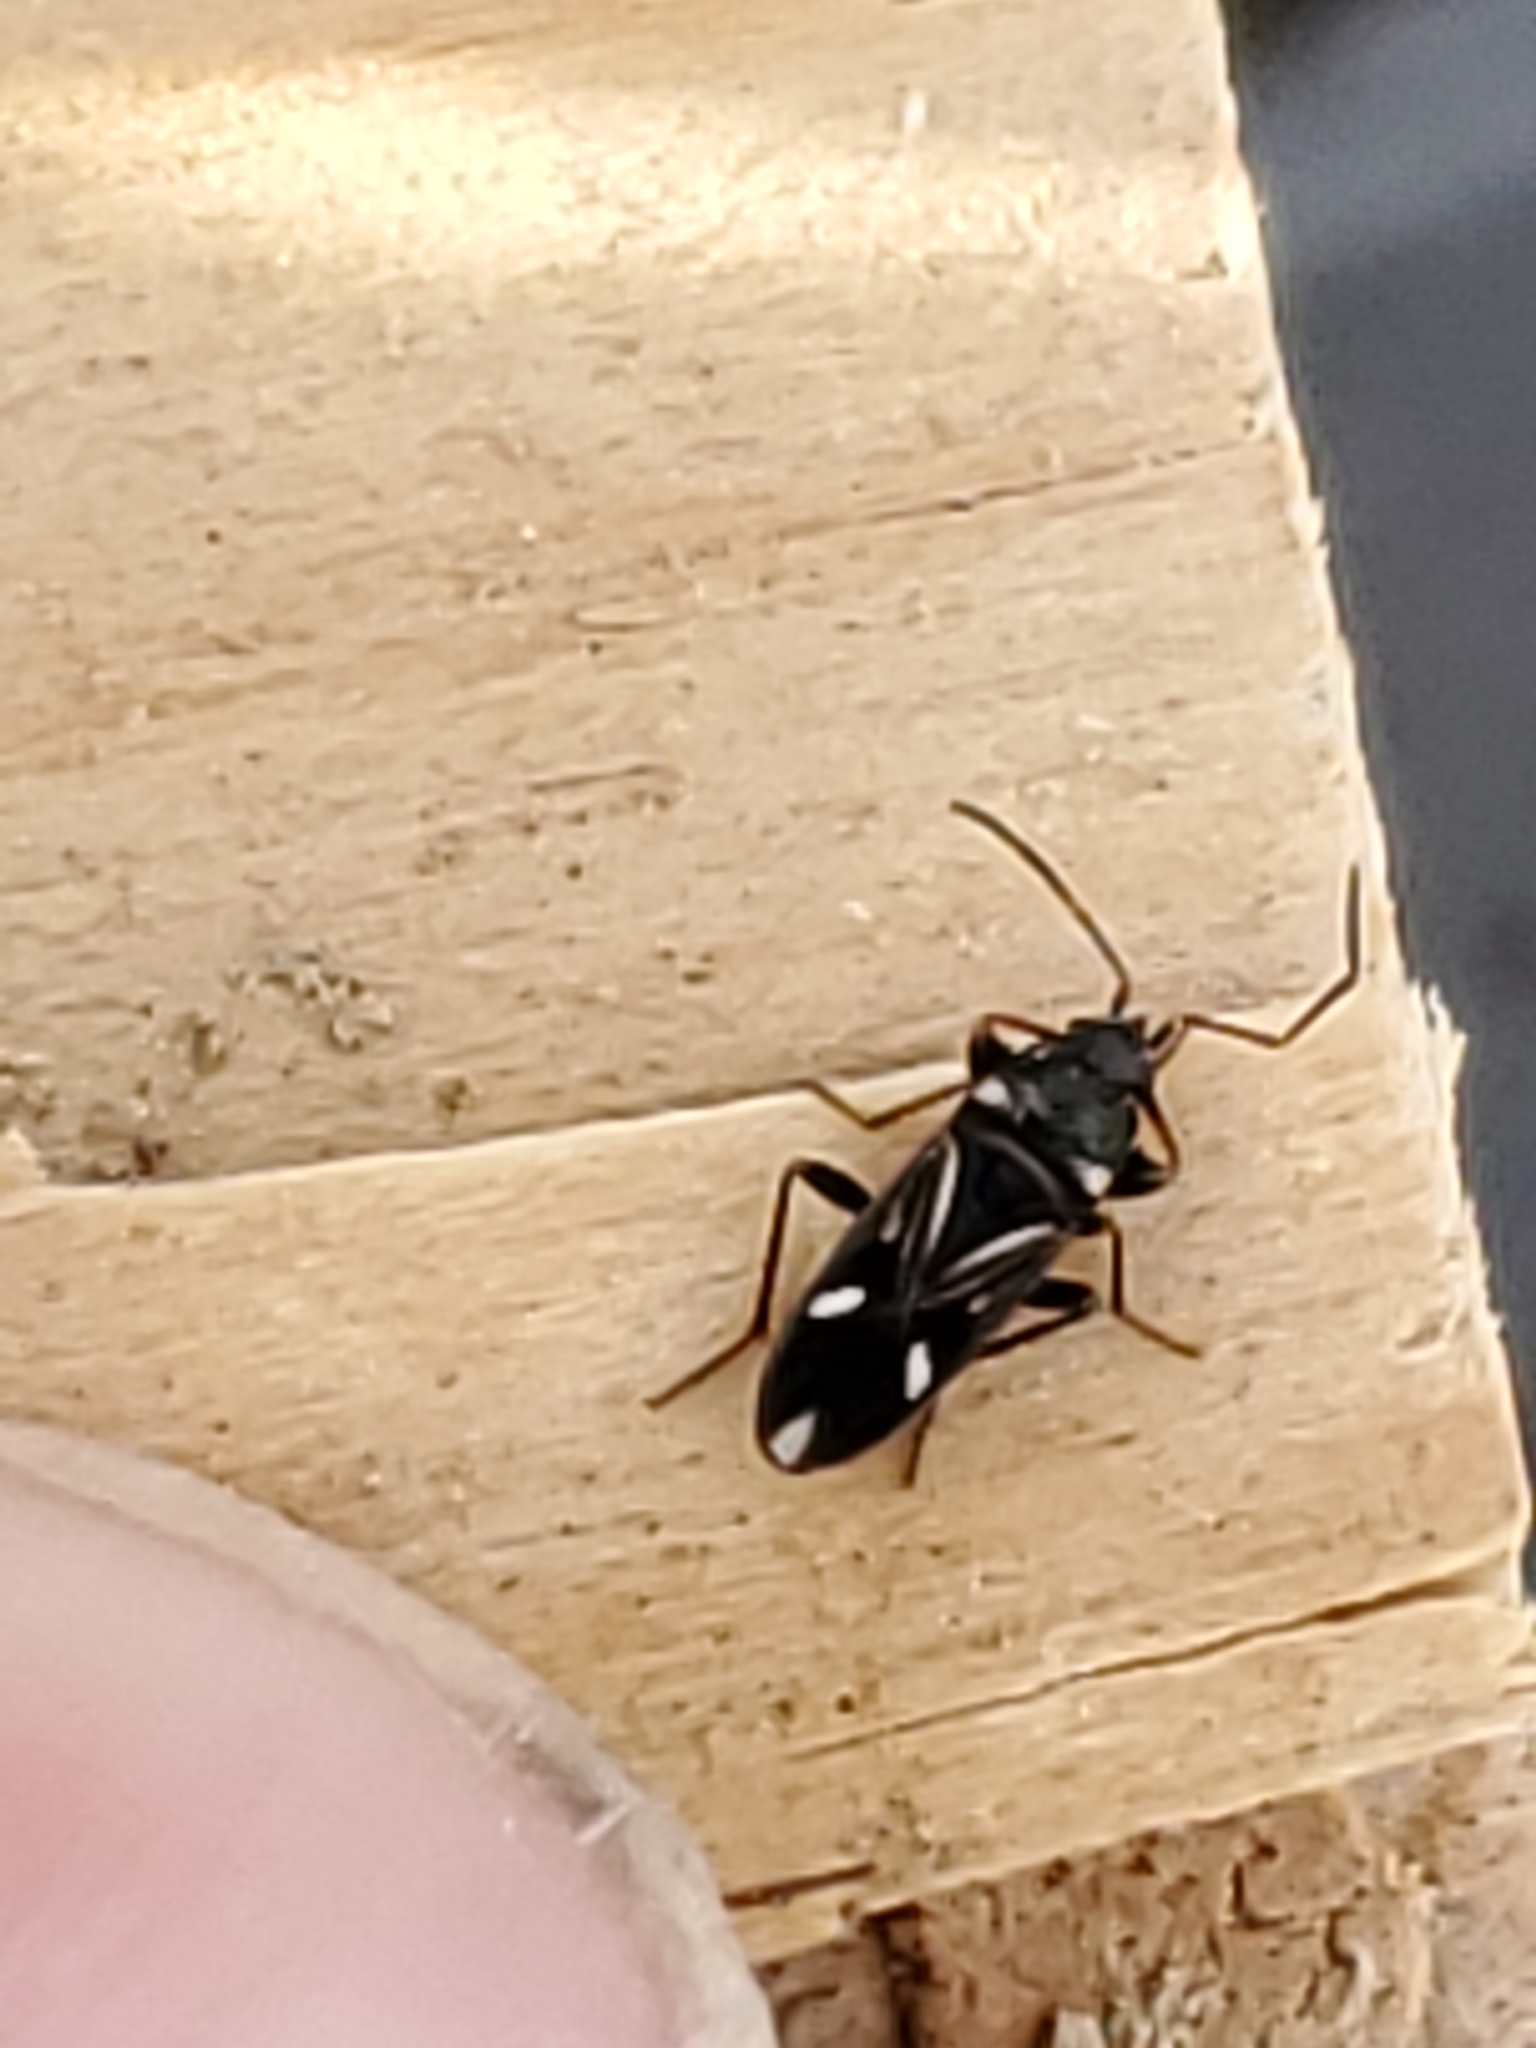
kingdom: Animalia
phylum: Arthropoda
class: Insecta
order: Hemiptera
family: Rhyparochromidae
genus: Raglius
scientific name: Raglius alboacuminatus
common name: Dirt-colored seed bug
